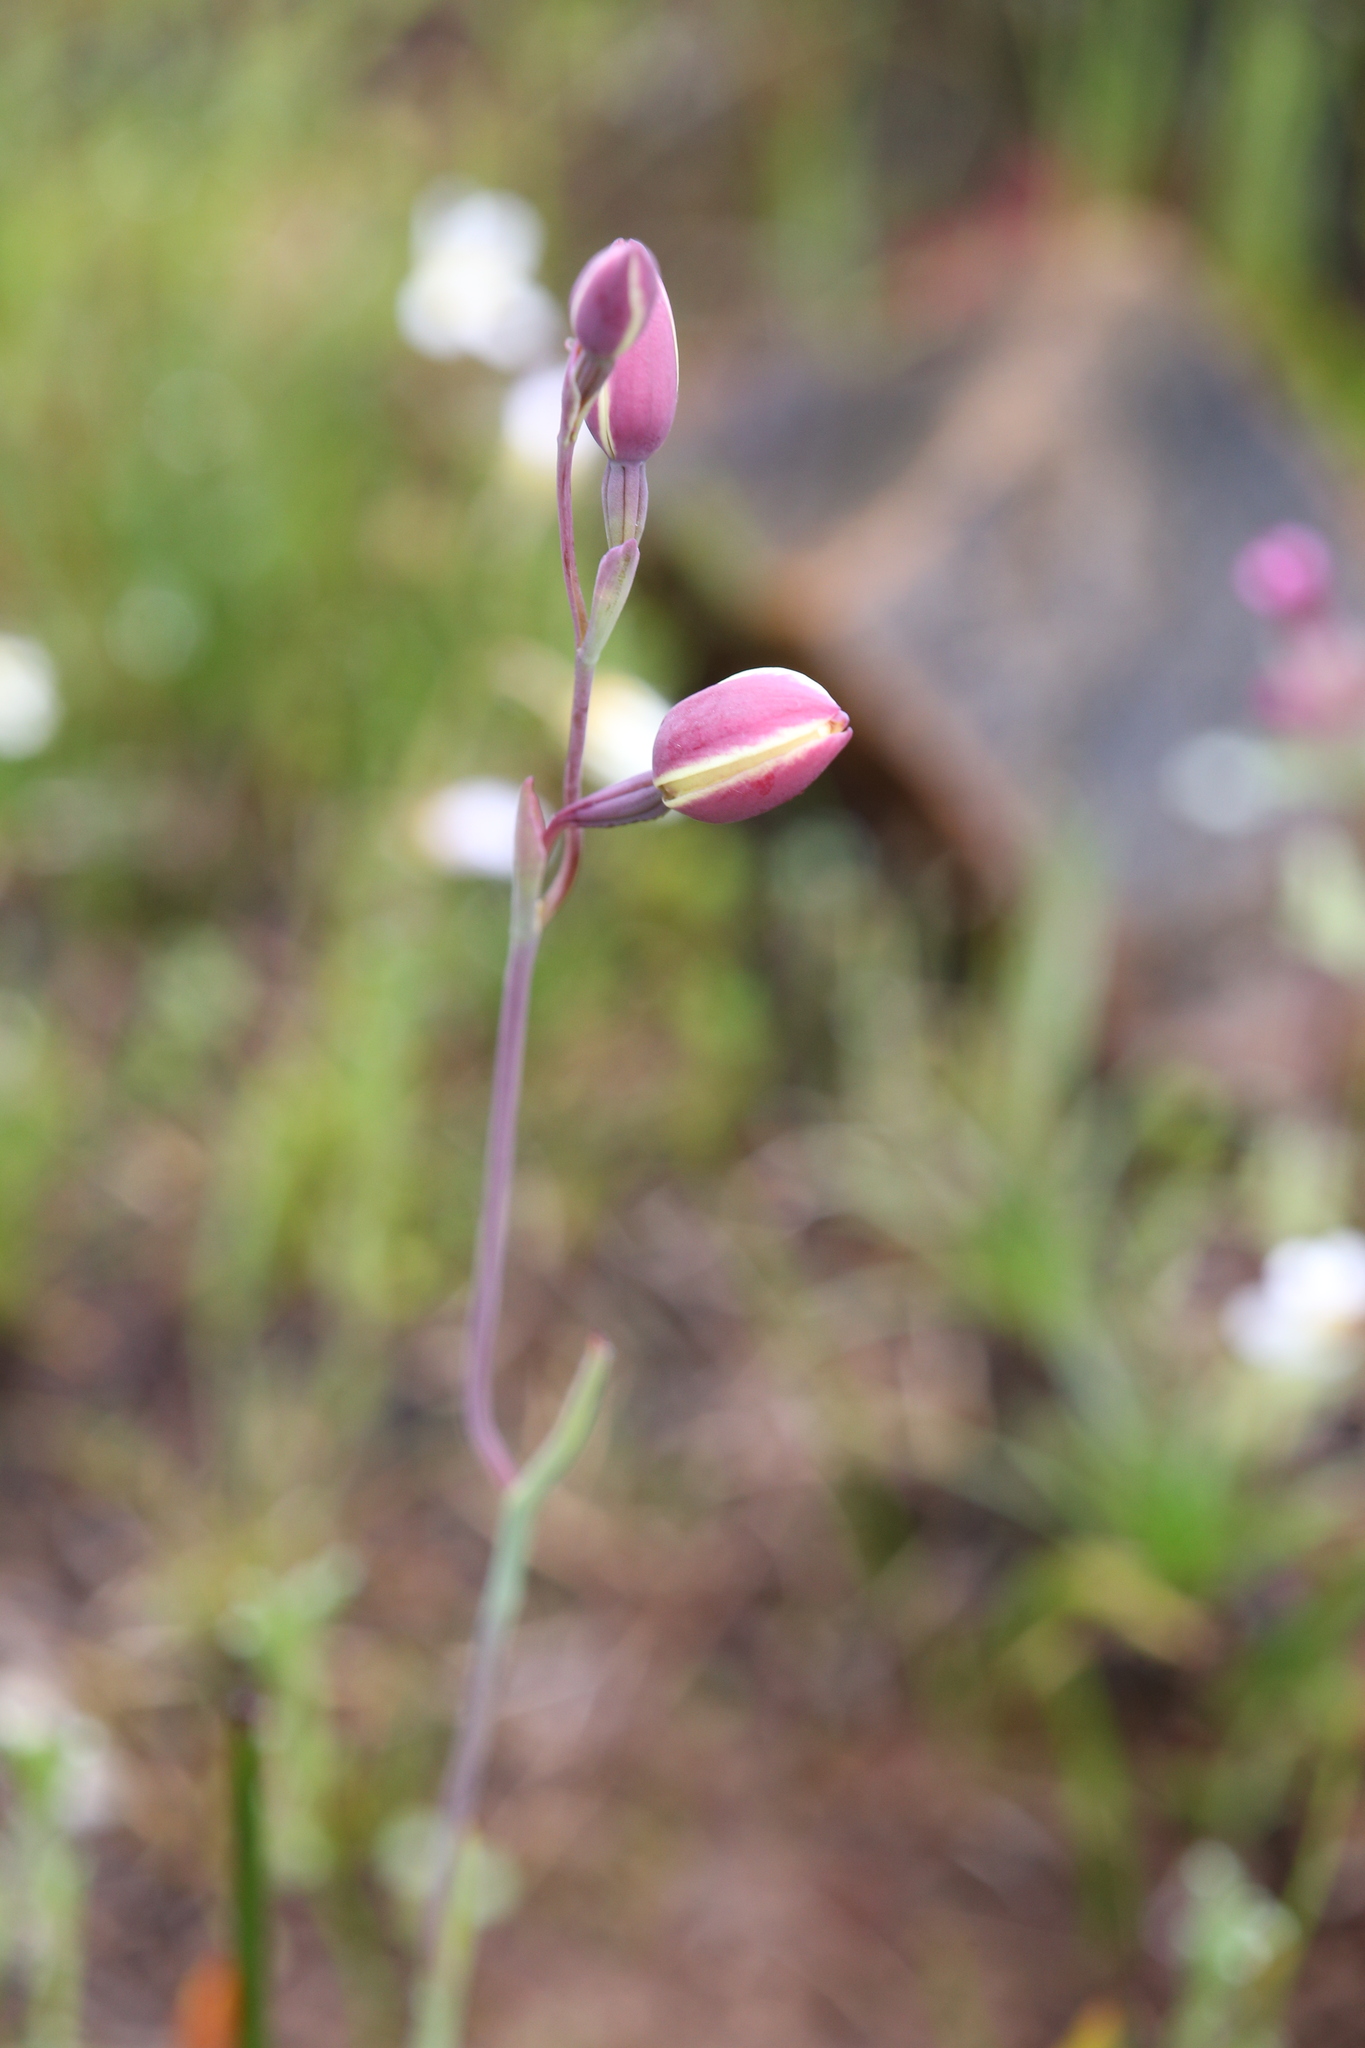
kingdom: Plantae
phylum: Tracheophyta
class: Liliopsida
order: Asparagales
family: Orchidaceae
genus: Thelymitra
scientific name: Thelymitra antennifera
